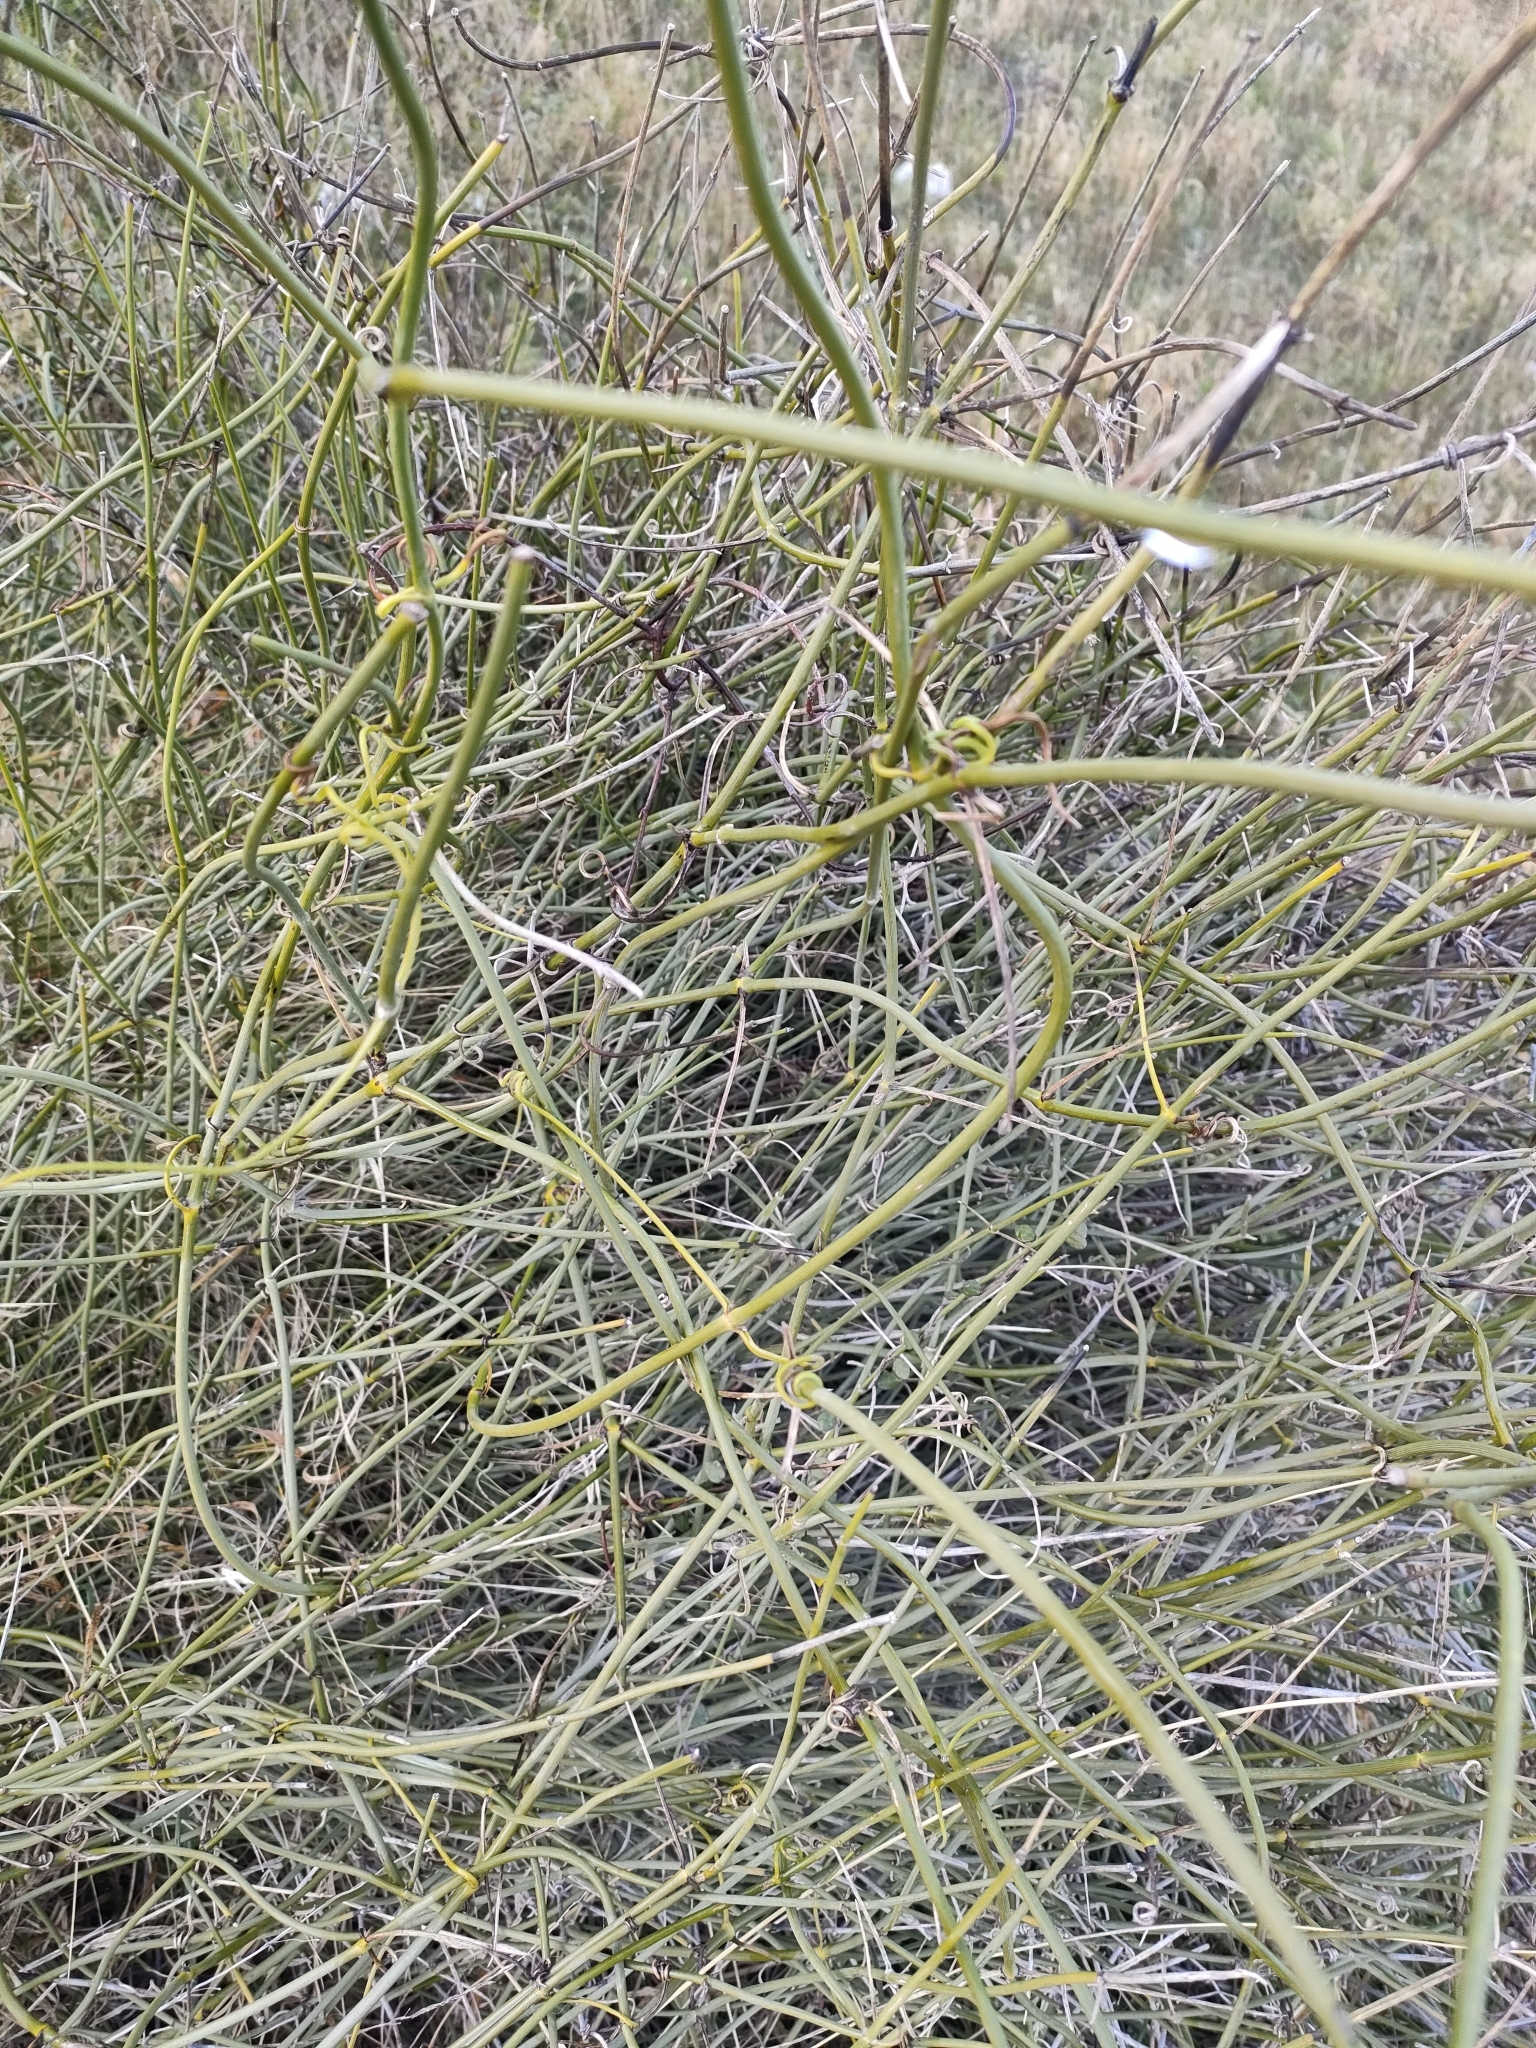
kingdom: Plantae
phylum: Tracheophyta
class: Magnoliopsida
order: Ranunculales
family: Ranunculaceae
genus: Clematis
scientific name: Clematis afoliata
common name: Rush-stem clematis
